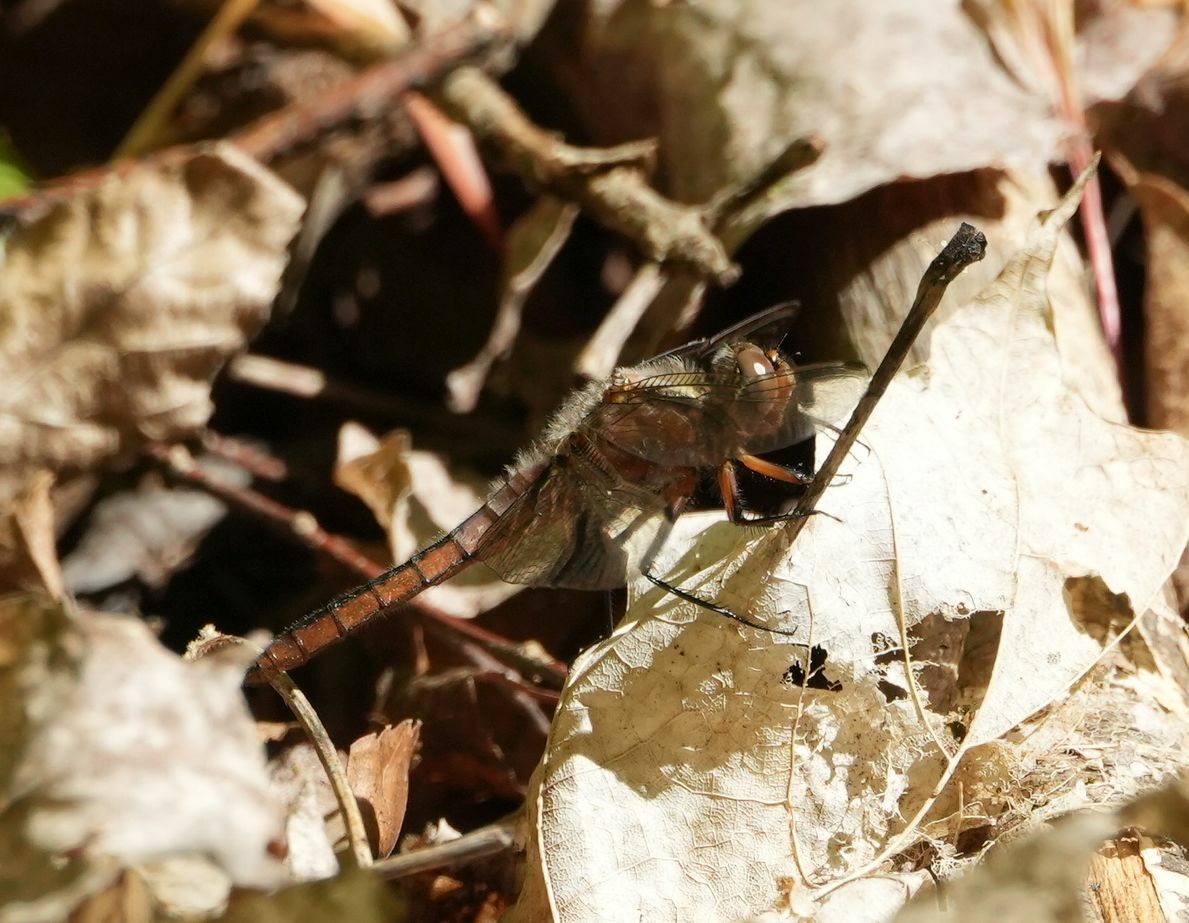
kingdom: Animalia
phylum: Arthropoda
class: Insecta
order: Odonata
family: Libellulidae
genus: Ladona
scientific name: Ladona julia
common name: Chalk-fronted corporal
